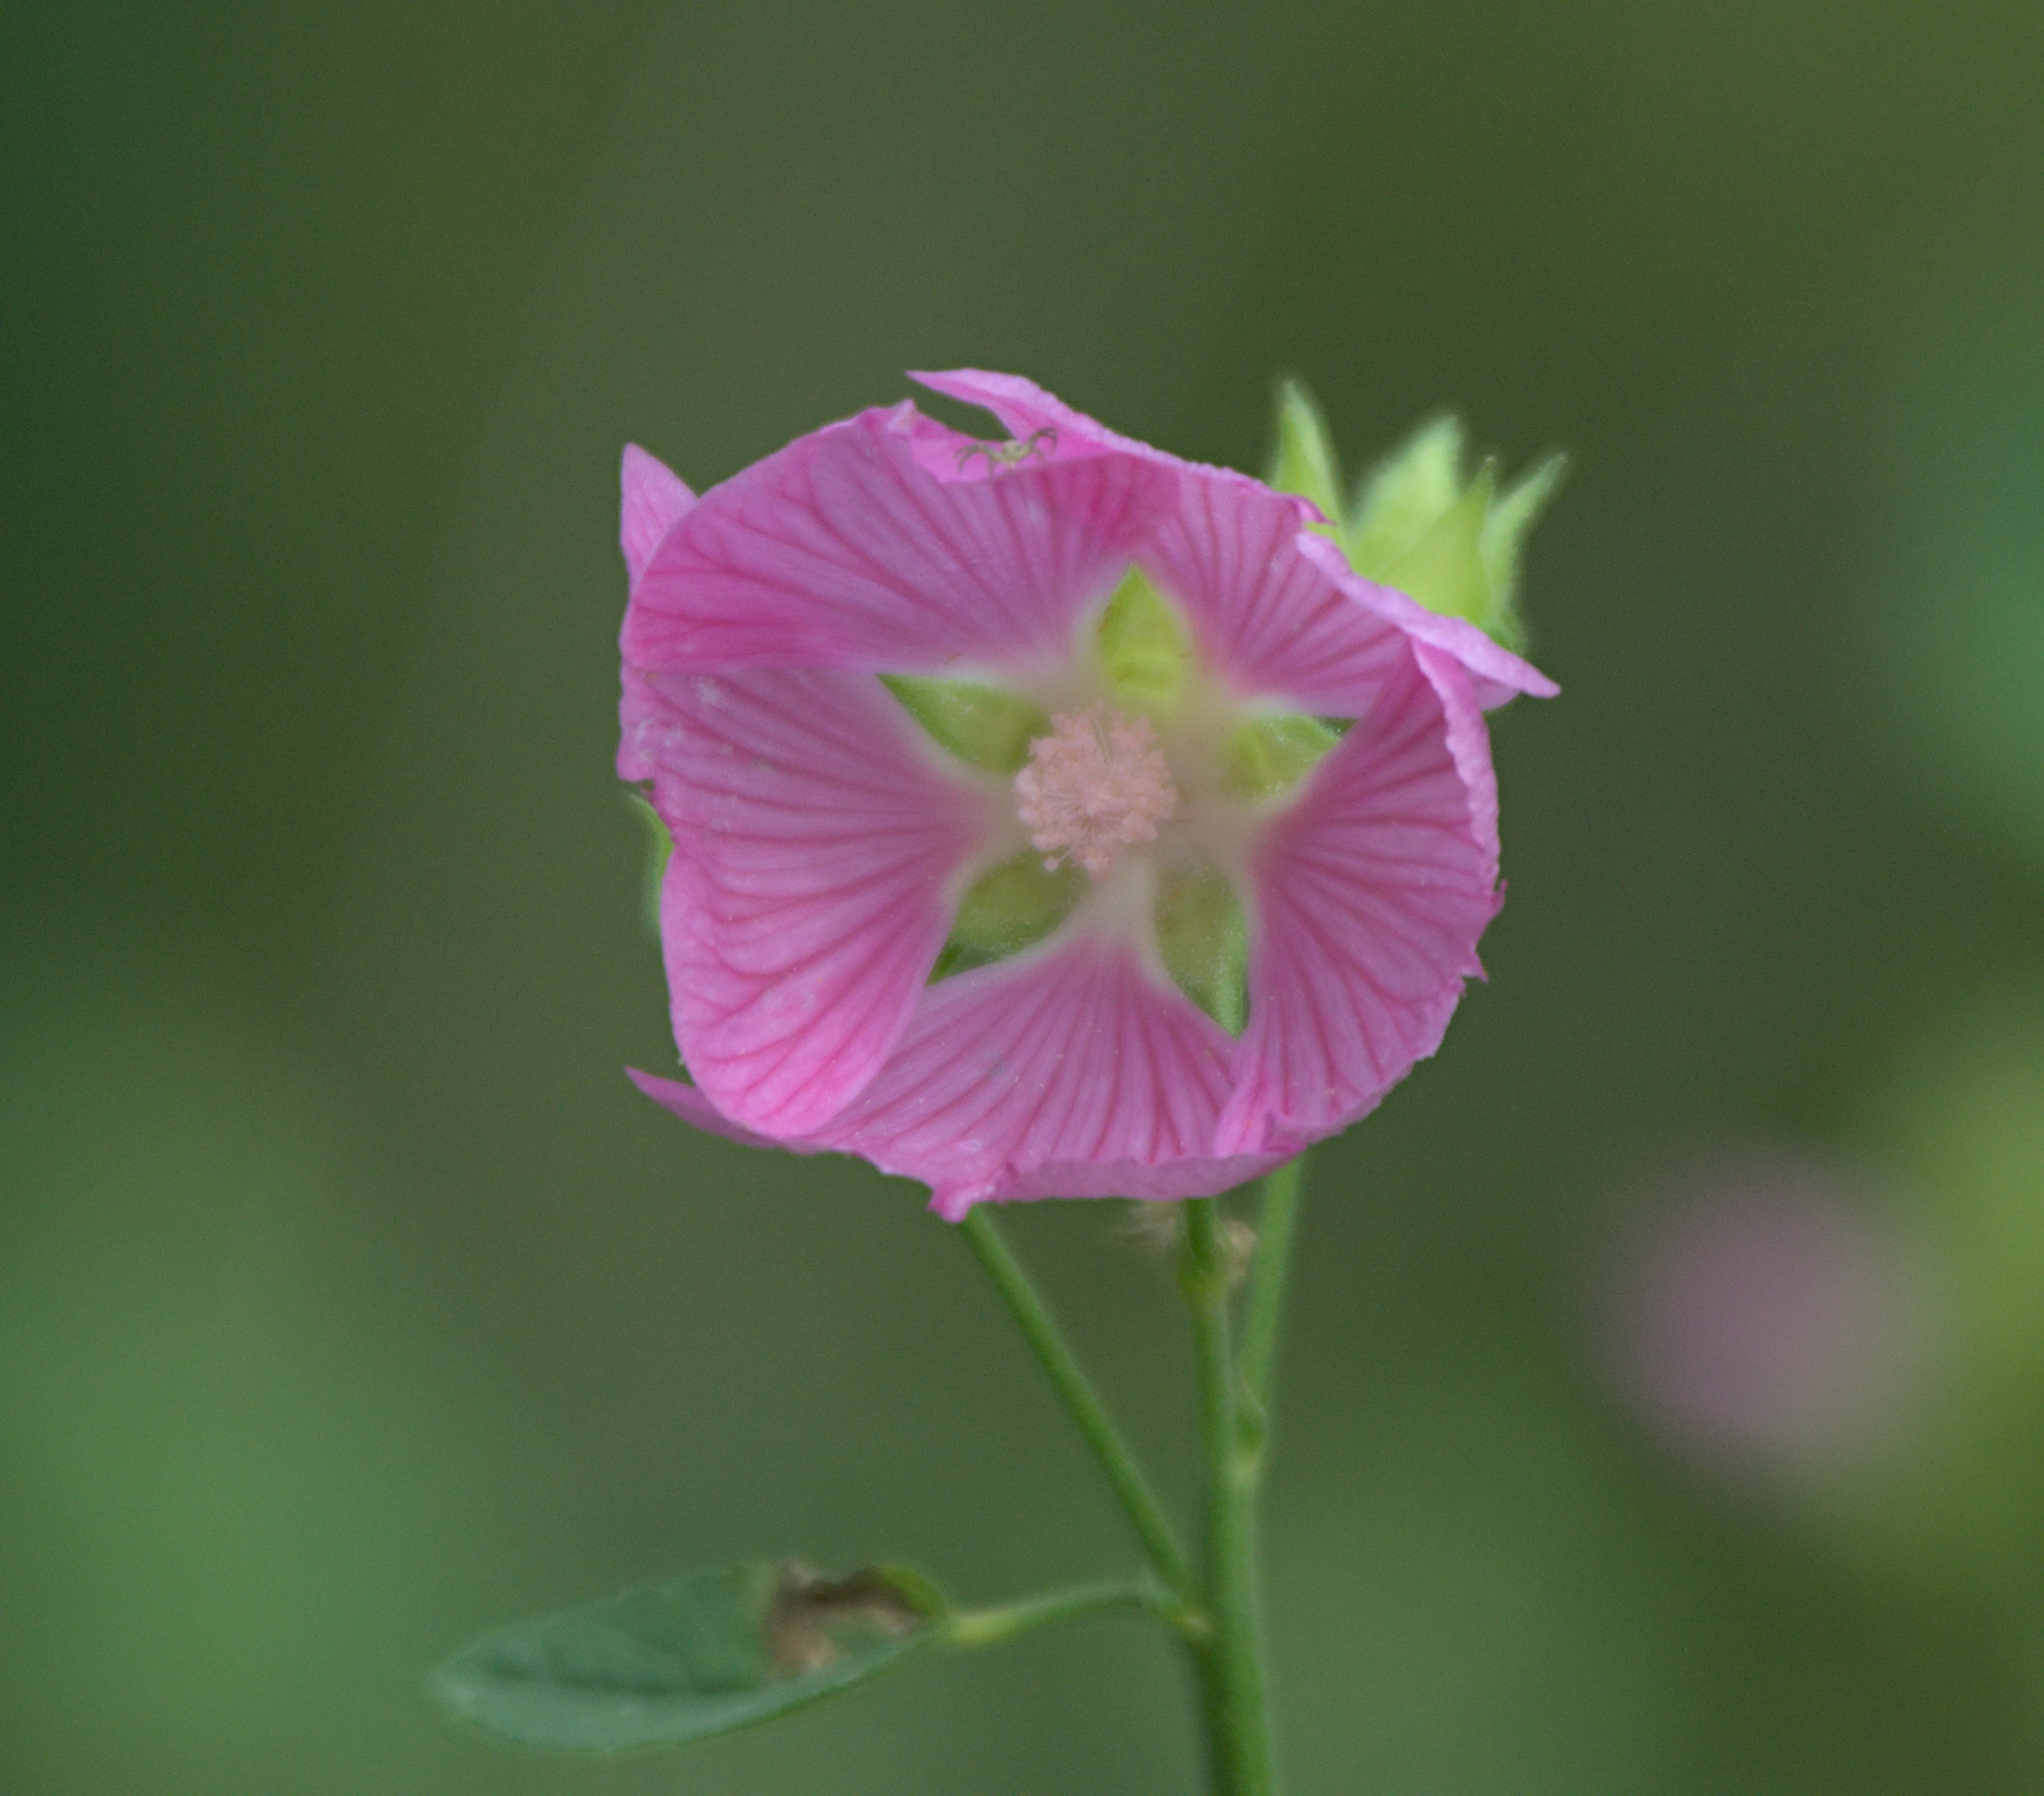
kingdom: Plantae
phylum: Tracheophyta
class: Magnoliopsida
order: Malvales
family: Malvaceae
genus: Malva
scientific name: Malva thuringiaca
